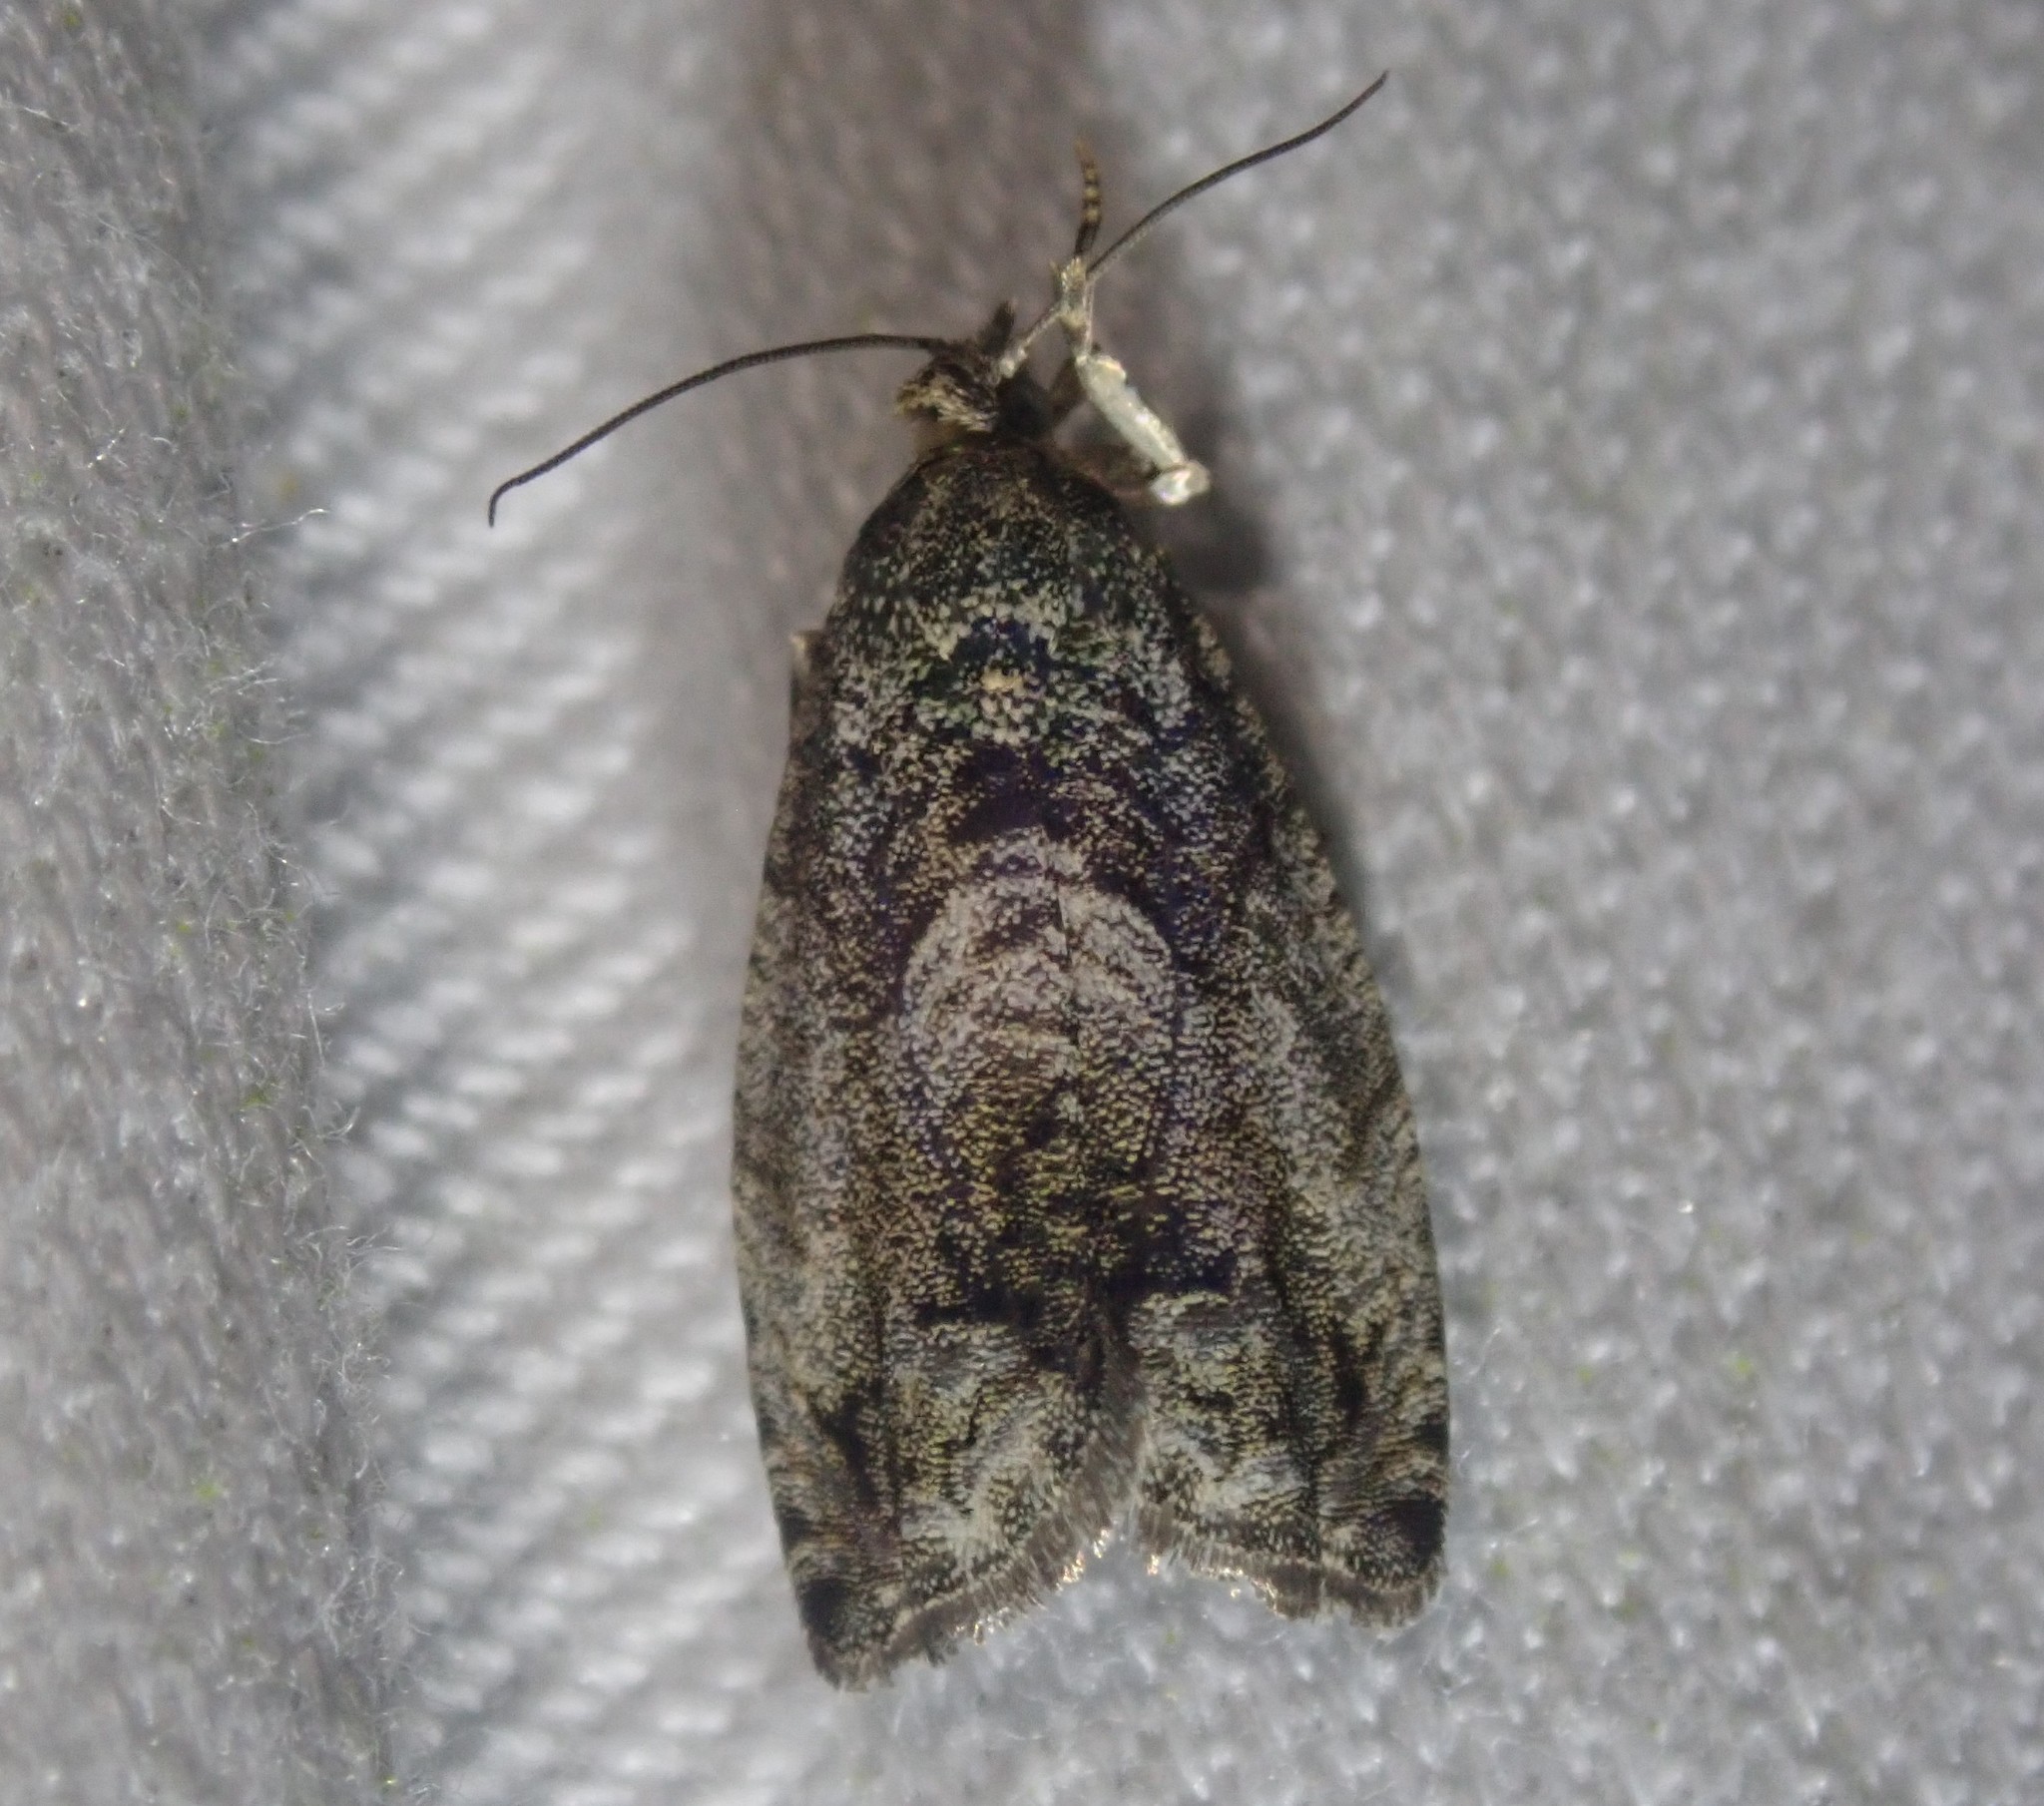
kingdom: Animalia
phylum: Arthropoda
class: Insecta
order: Lepidoptera
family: Tortricidae
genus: Cydia
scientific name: Cydia fagiglandana
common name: Large beech piercer
